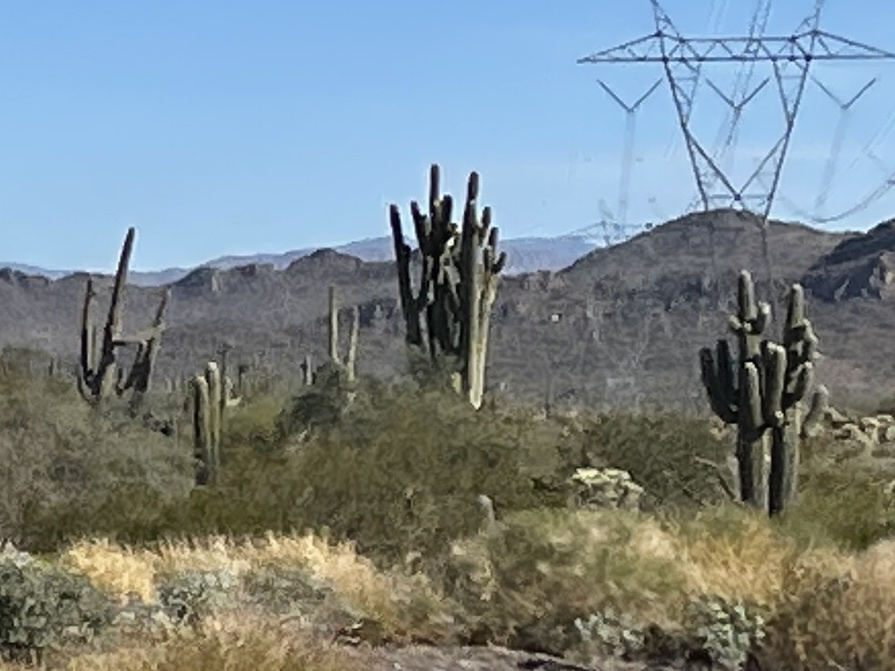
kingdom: Plantae
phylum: Tracheophyta
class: Magnoliopsida
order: Caryophyllales
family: Cactaceae
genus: Carnegiea
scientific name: Carnegiea gigantea
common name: Saguaro
